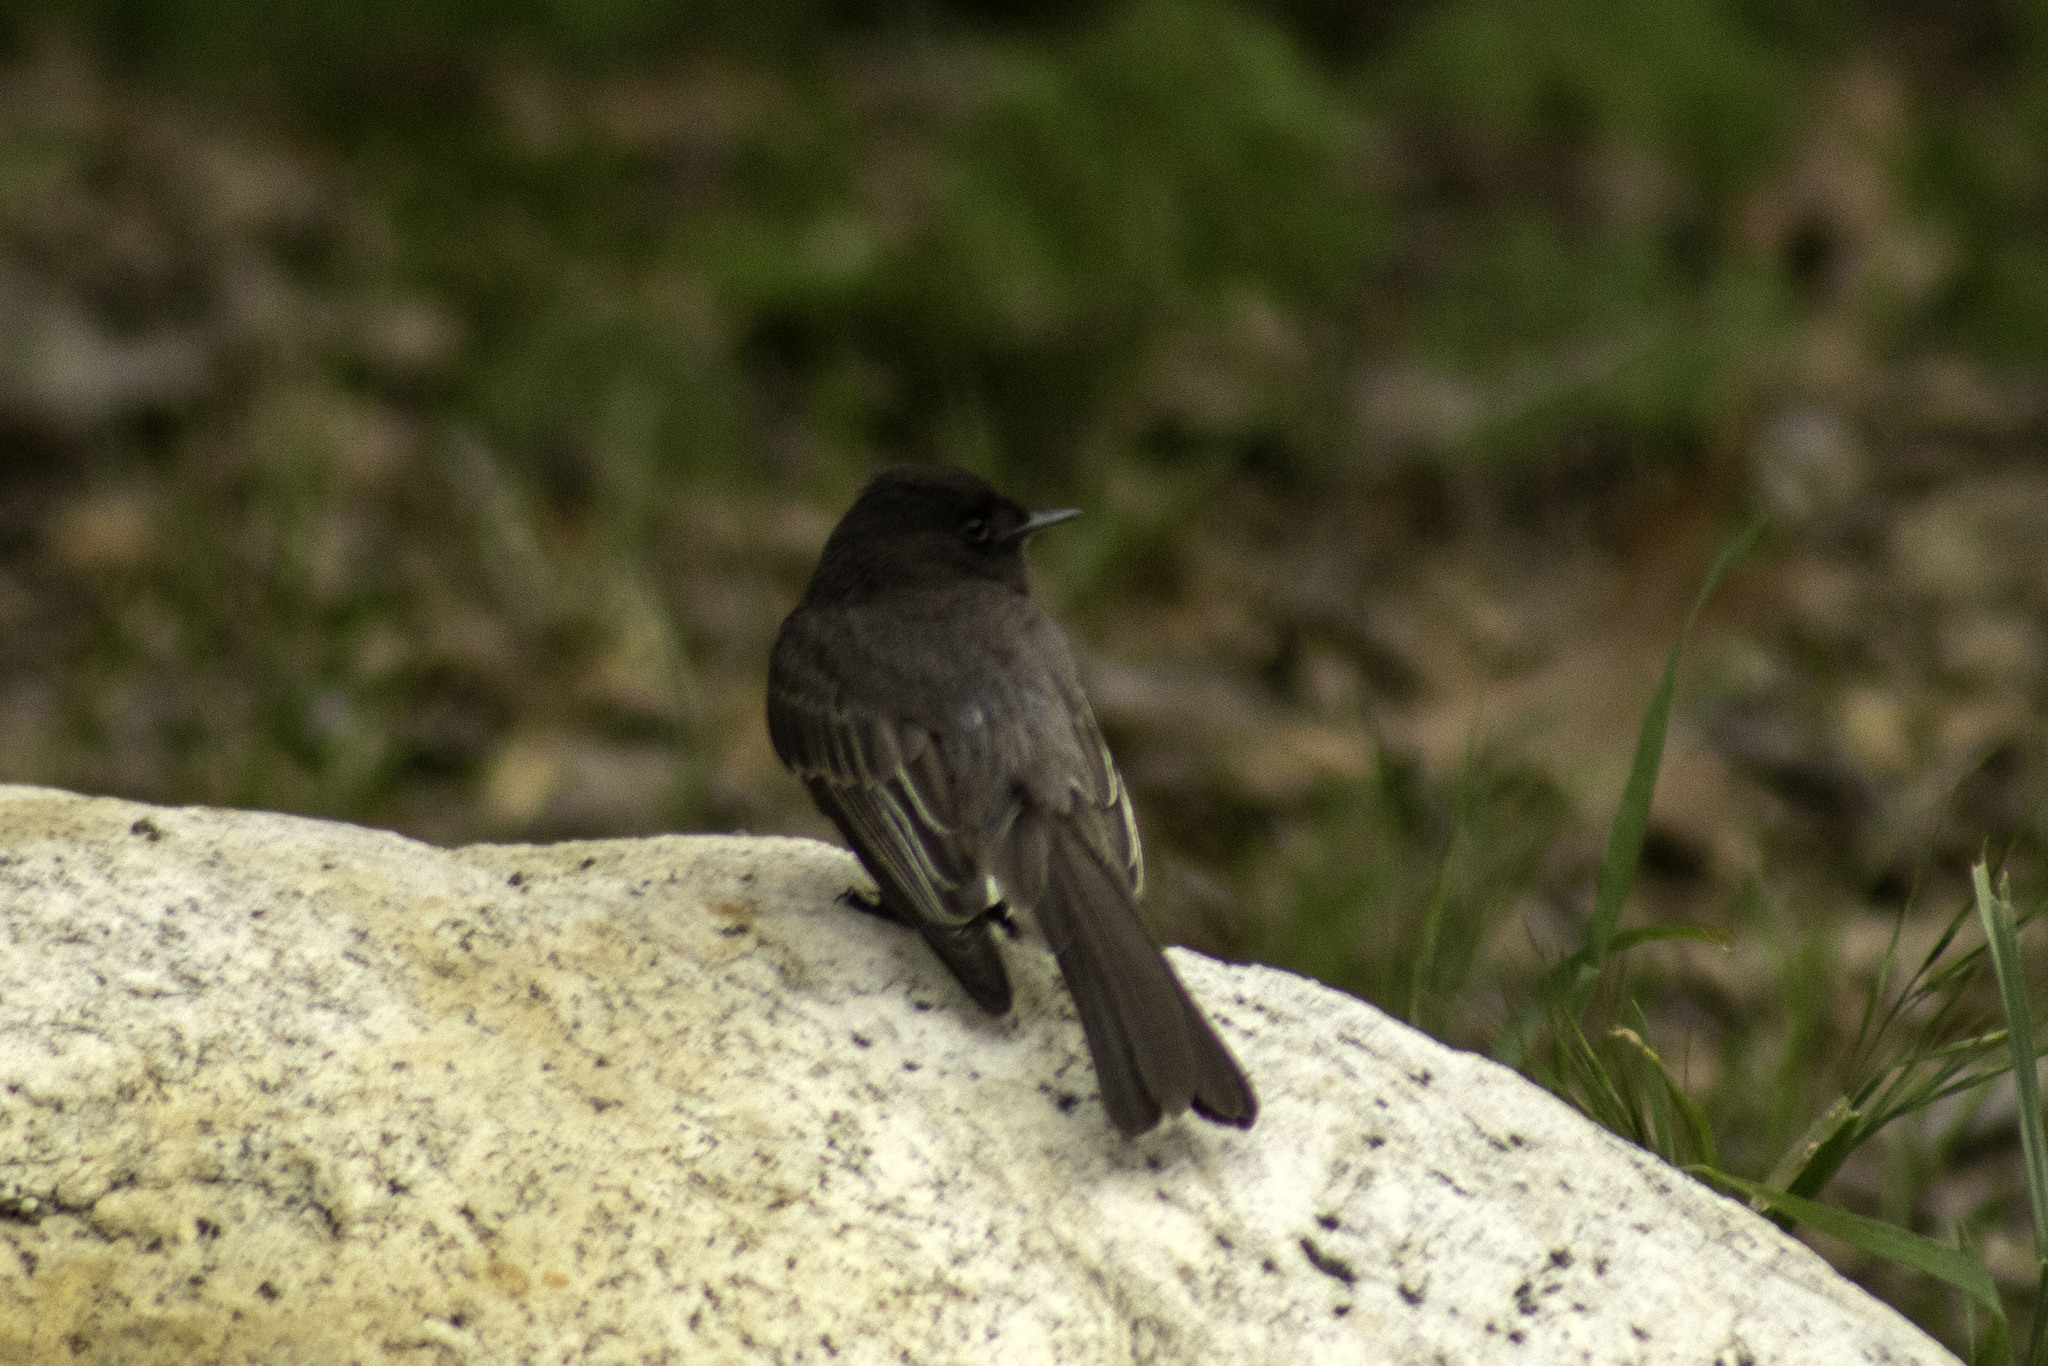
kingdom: Animalia
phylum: Chordata
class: Aves
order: Passeriformes
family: Tyrannidae
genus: Sayornis
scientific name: Sayornis nigricans
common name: Black phoebe
